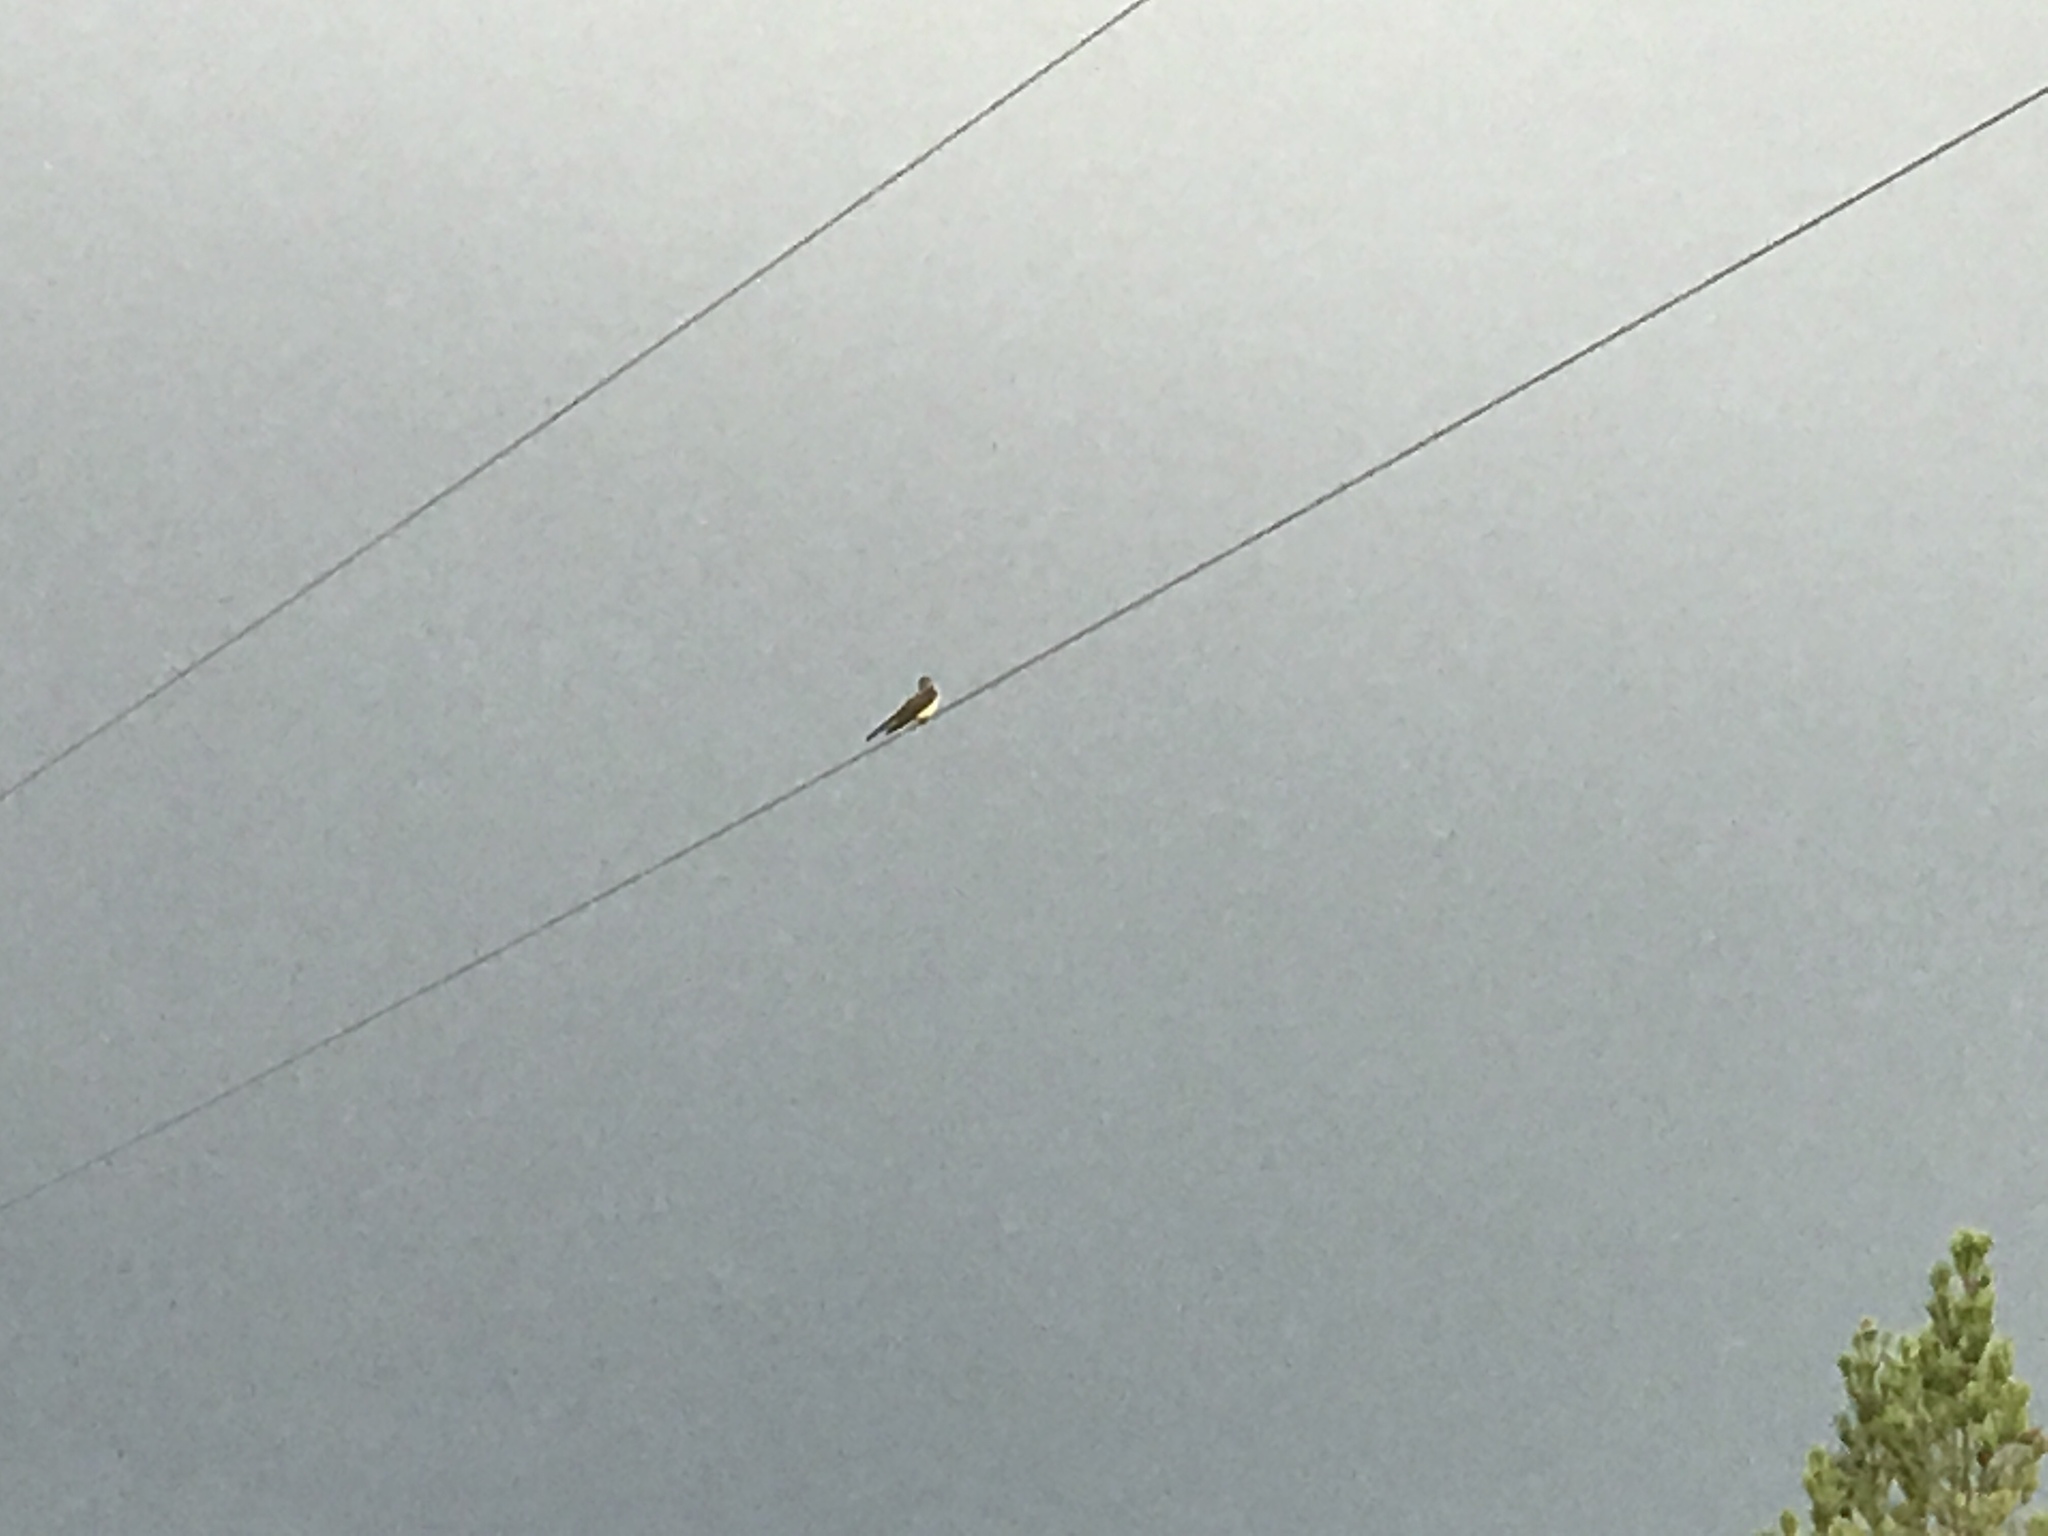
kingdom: Animalia
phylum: Chordata
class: Aves
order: Passeriformes
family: Tyrannidae
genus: Tyrannus
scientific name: Tyrannus vociferans
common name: Cassin's kingbird
